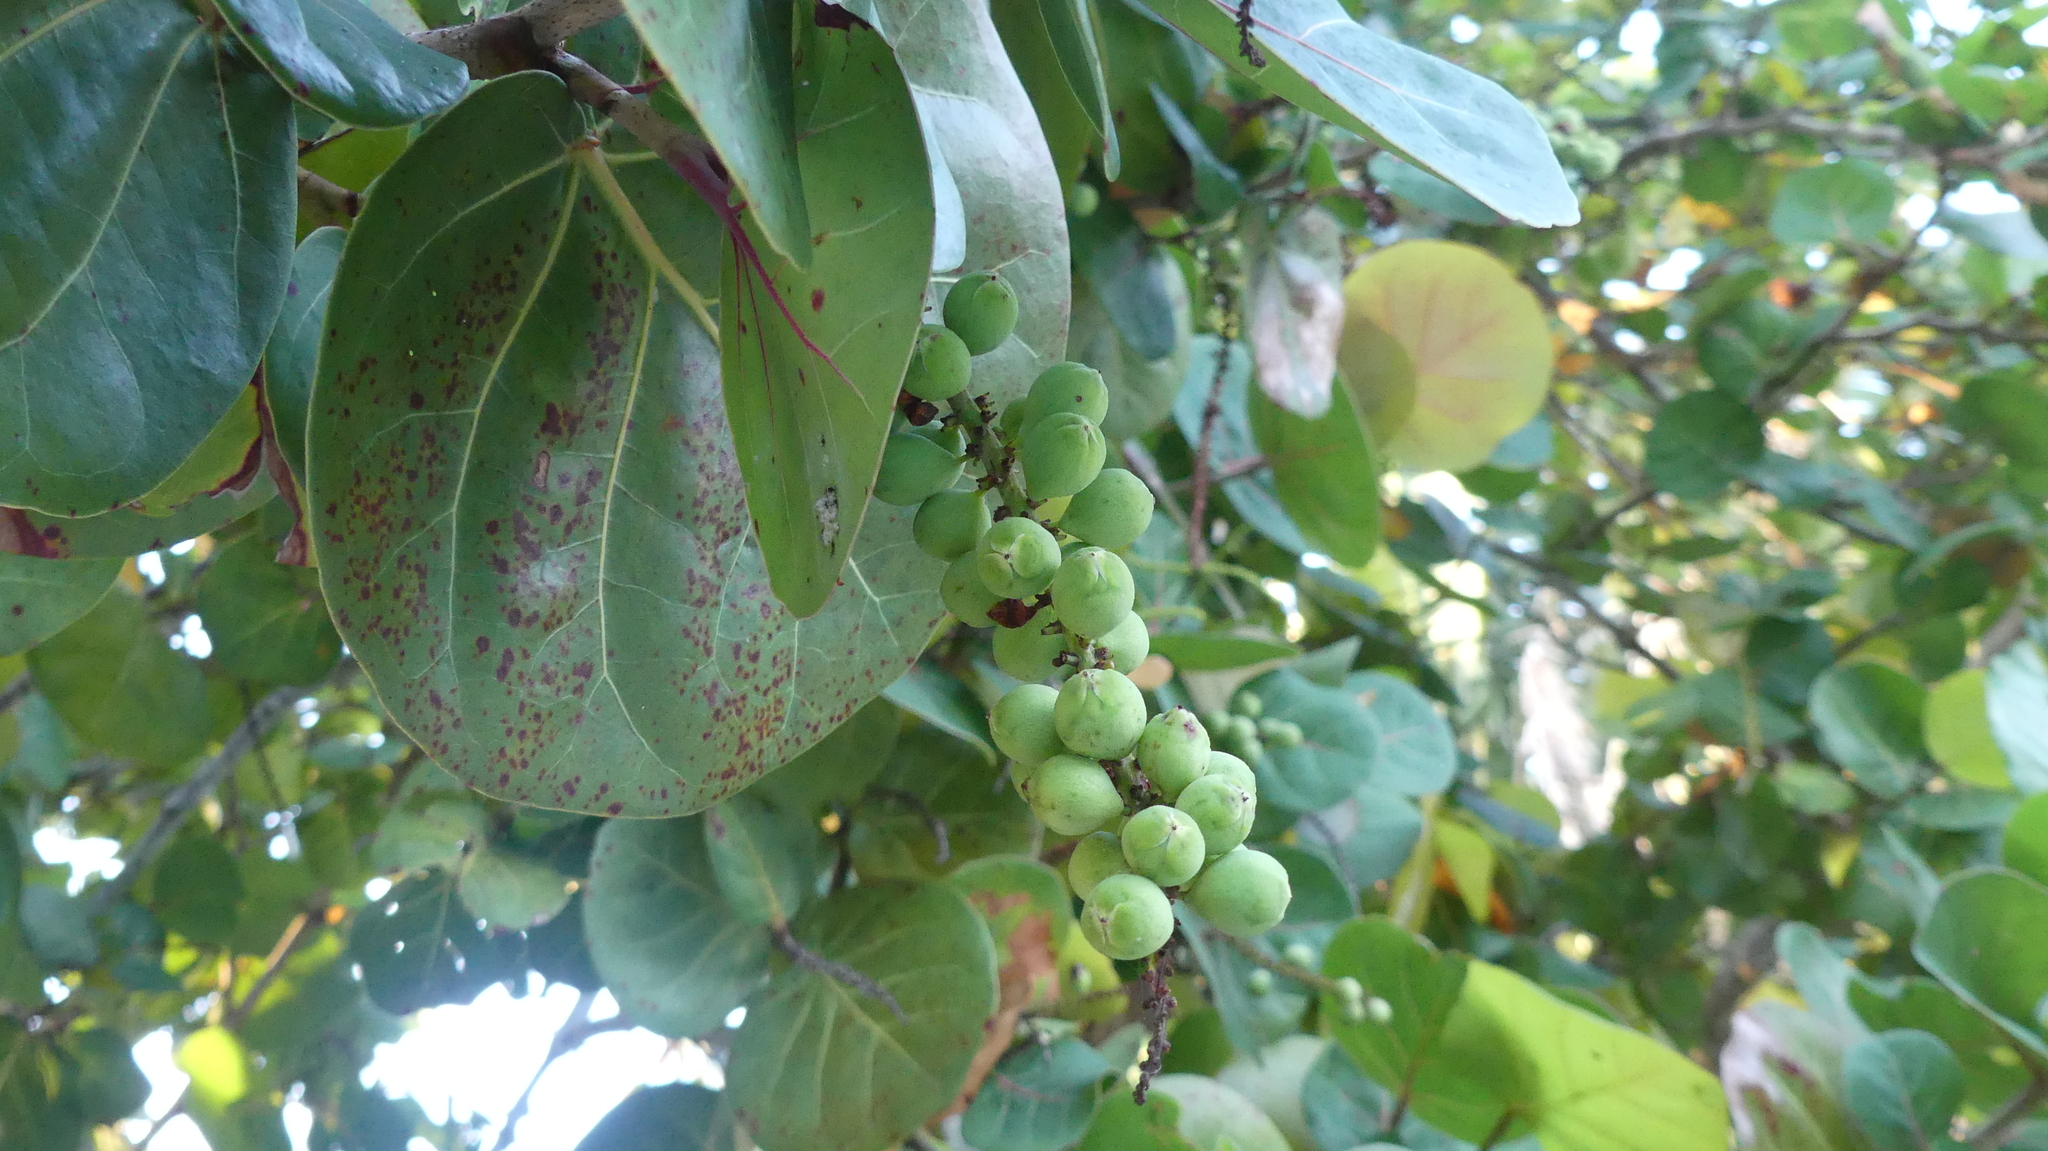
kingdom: Plantae
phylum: Tracheophyta
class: Magnoliopsida
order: Caryophyllales
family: Polygonaceae
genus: Coccoloba
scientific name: Coccoloba uvifera
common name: Seagrape
